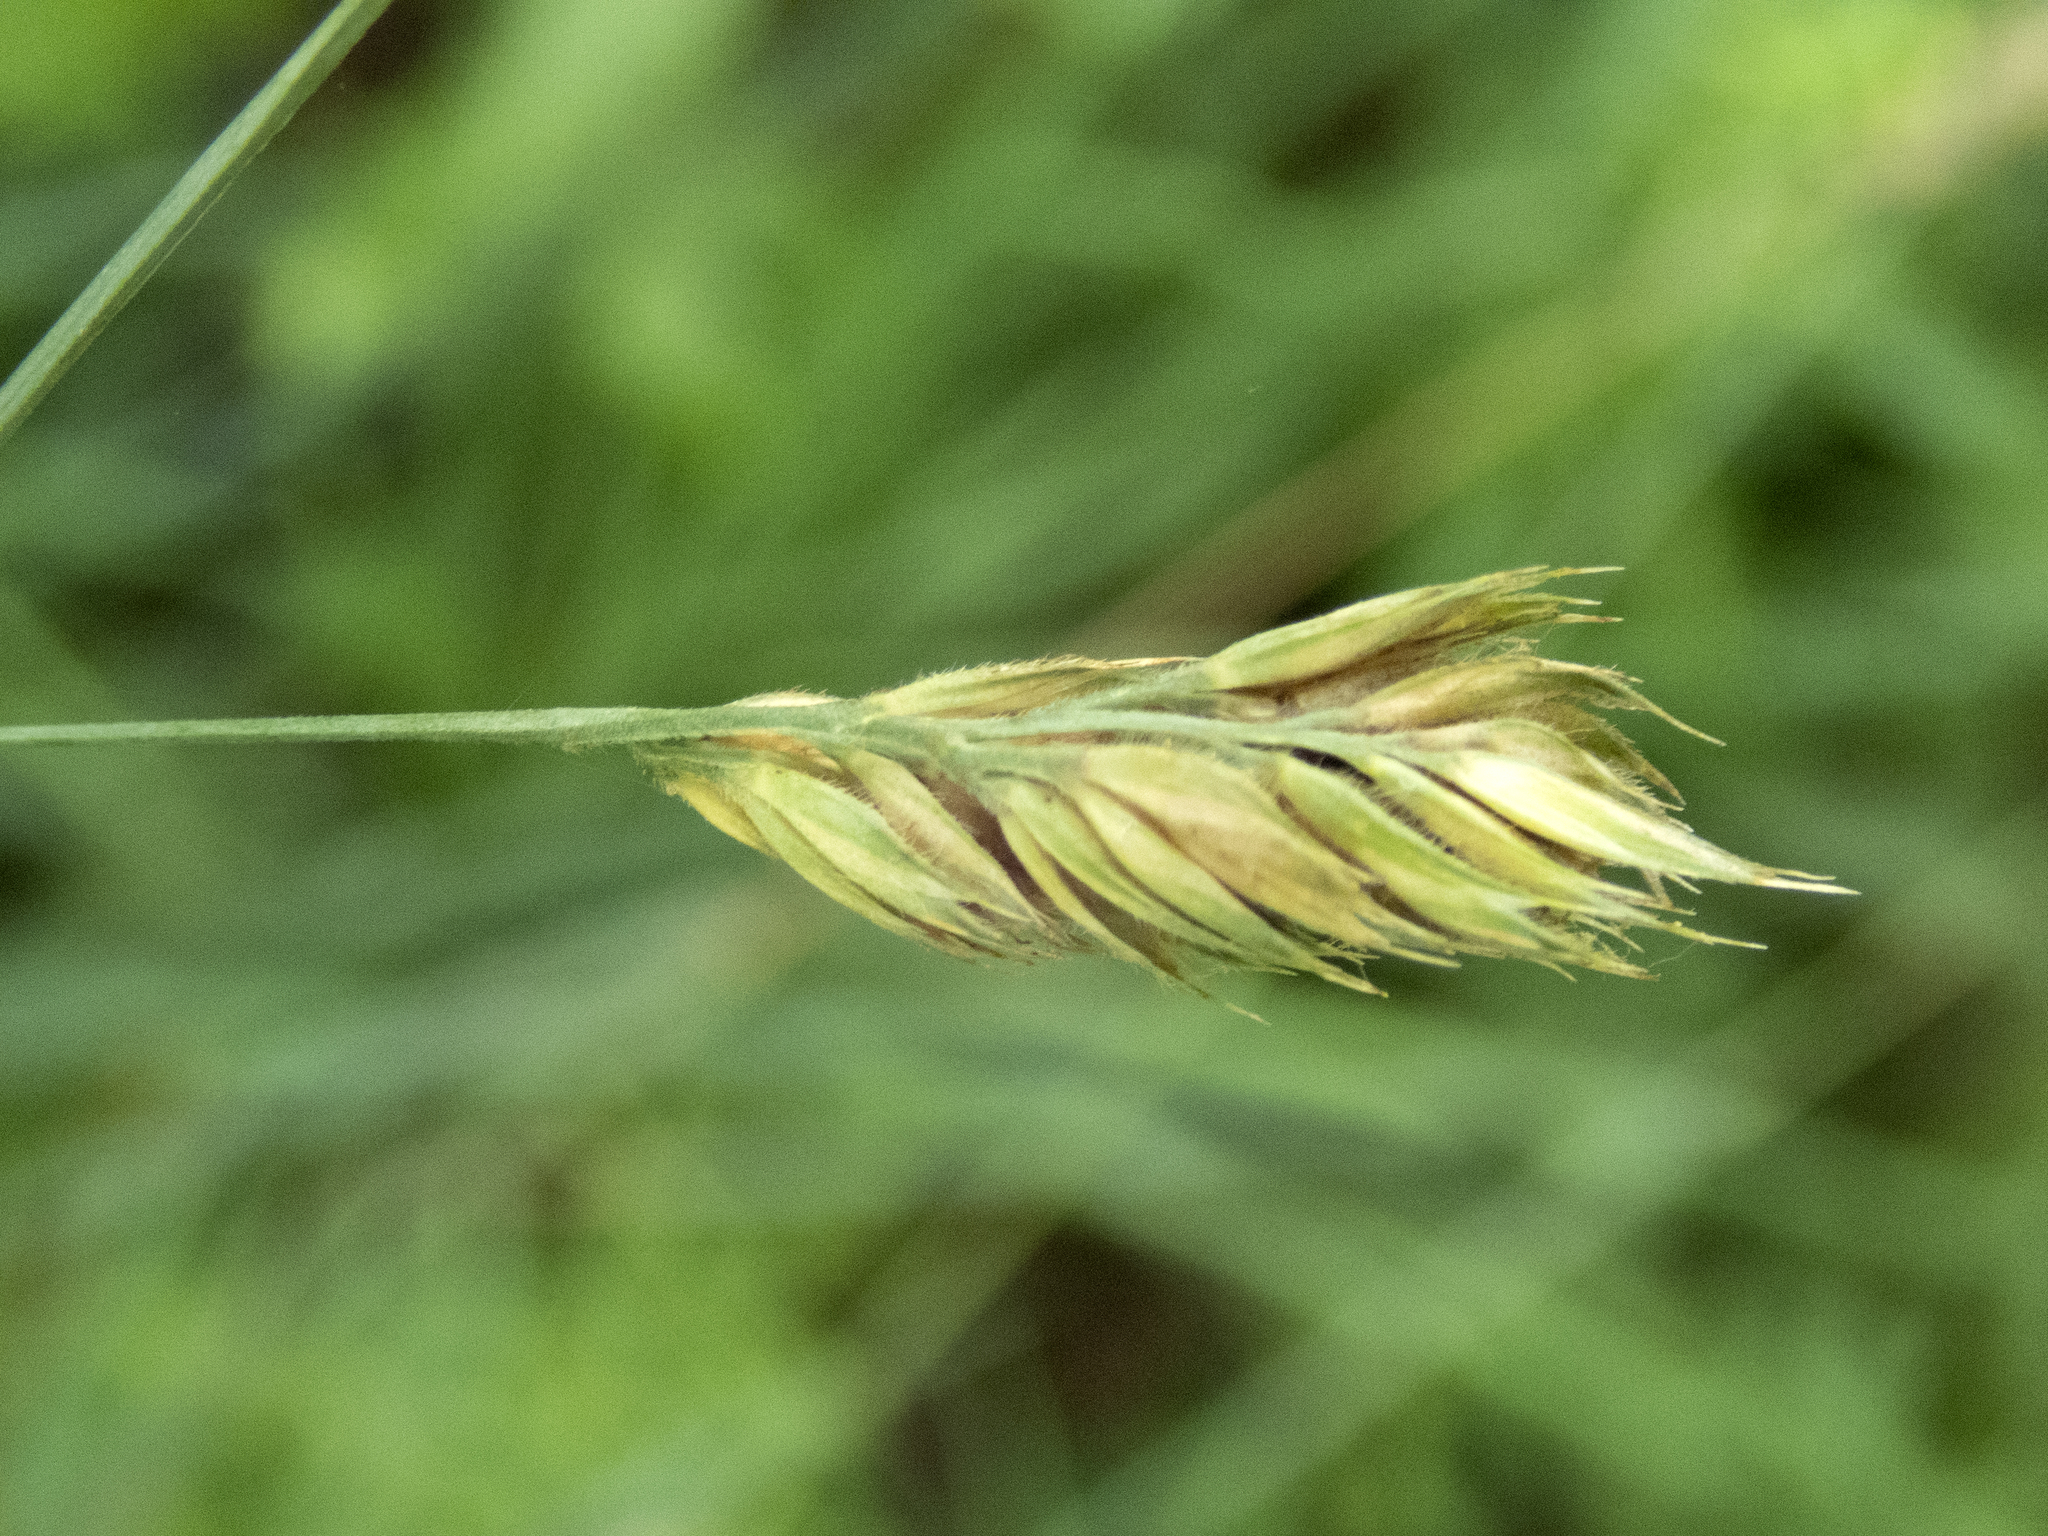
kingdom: Plantae
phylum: Tracheophyta
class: Liliopsida
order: Poales
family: Poaceae
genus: Dactylis
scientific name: Dactylis glomerata
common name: Orchardgrass
